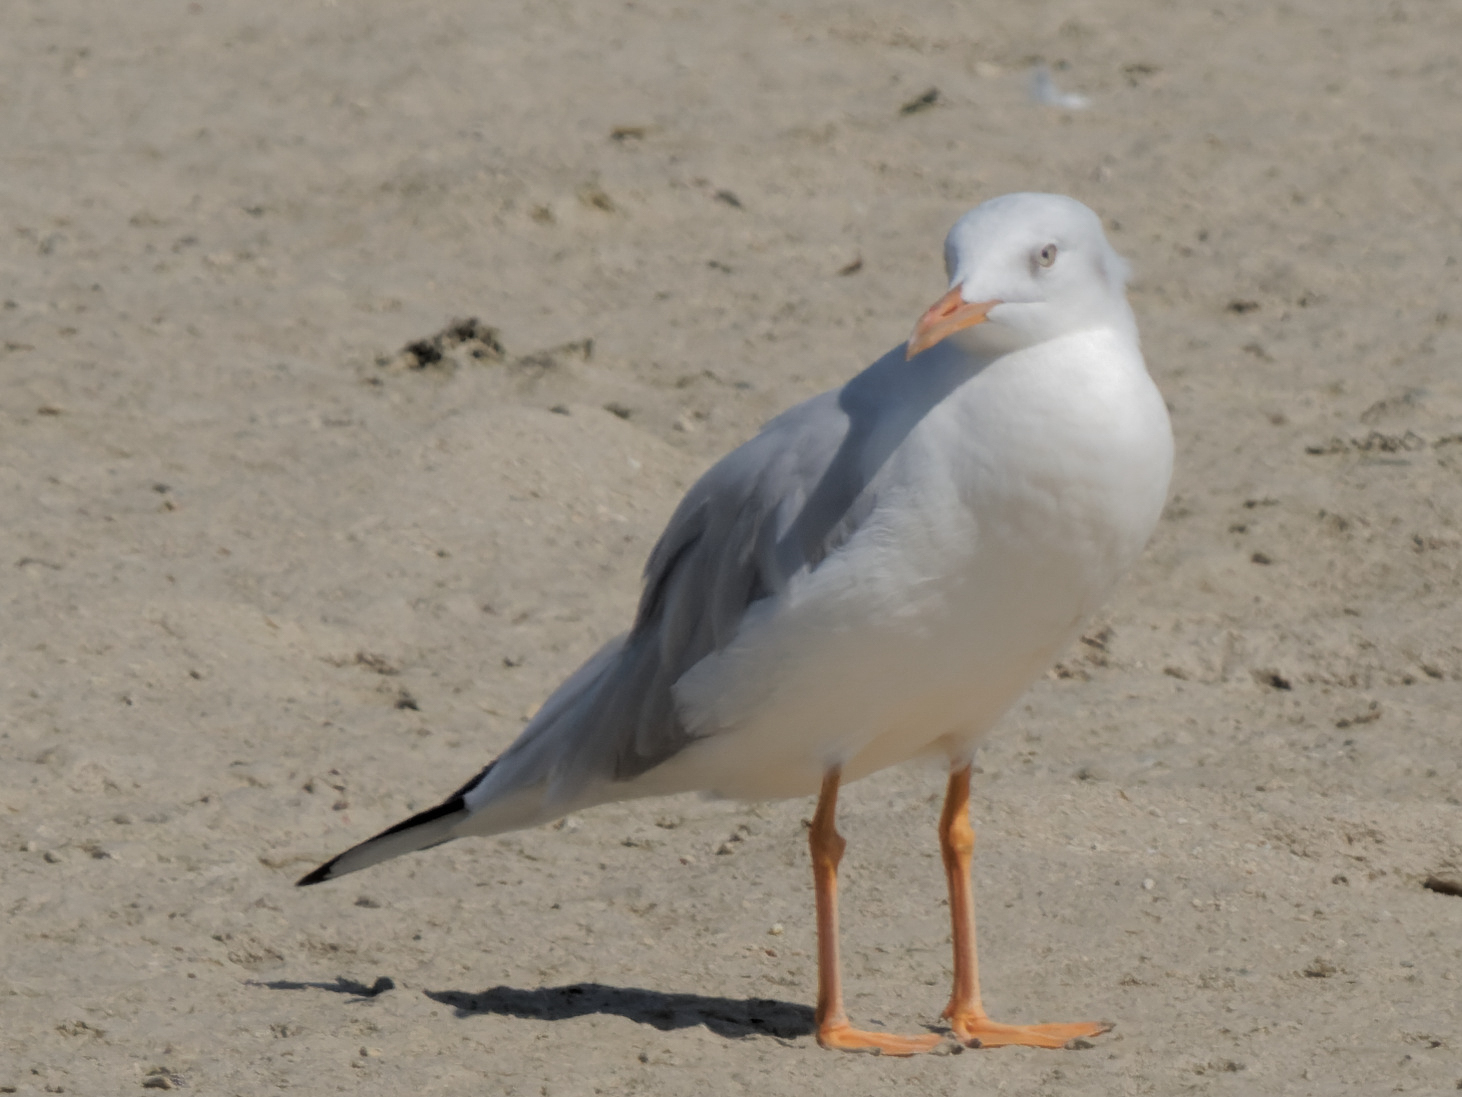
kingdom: Animalia
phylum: Chordata
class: Aves
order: Charadriiformes
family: Laridae
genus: Chroicocephalus
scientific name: Chroicocephalus genei
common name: Slender-billed gull
